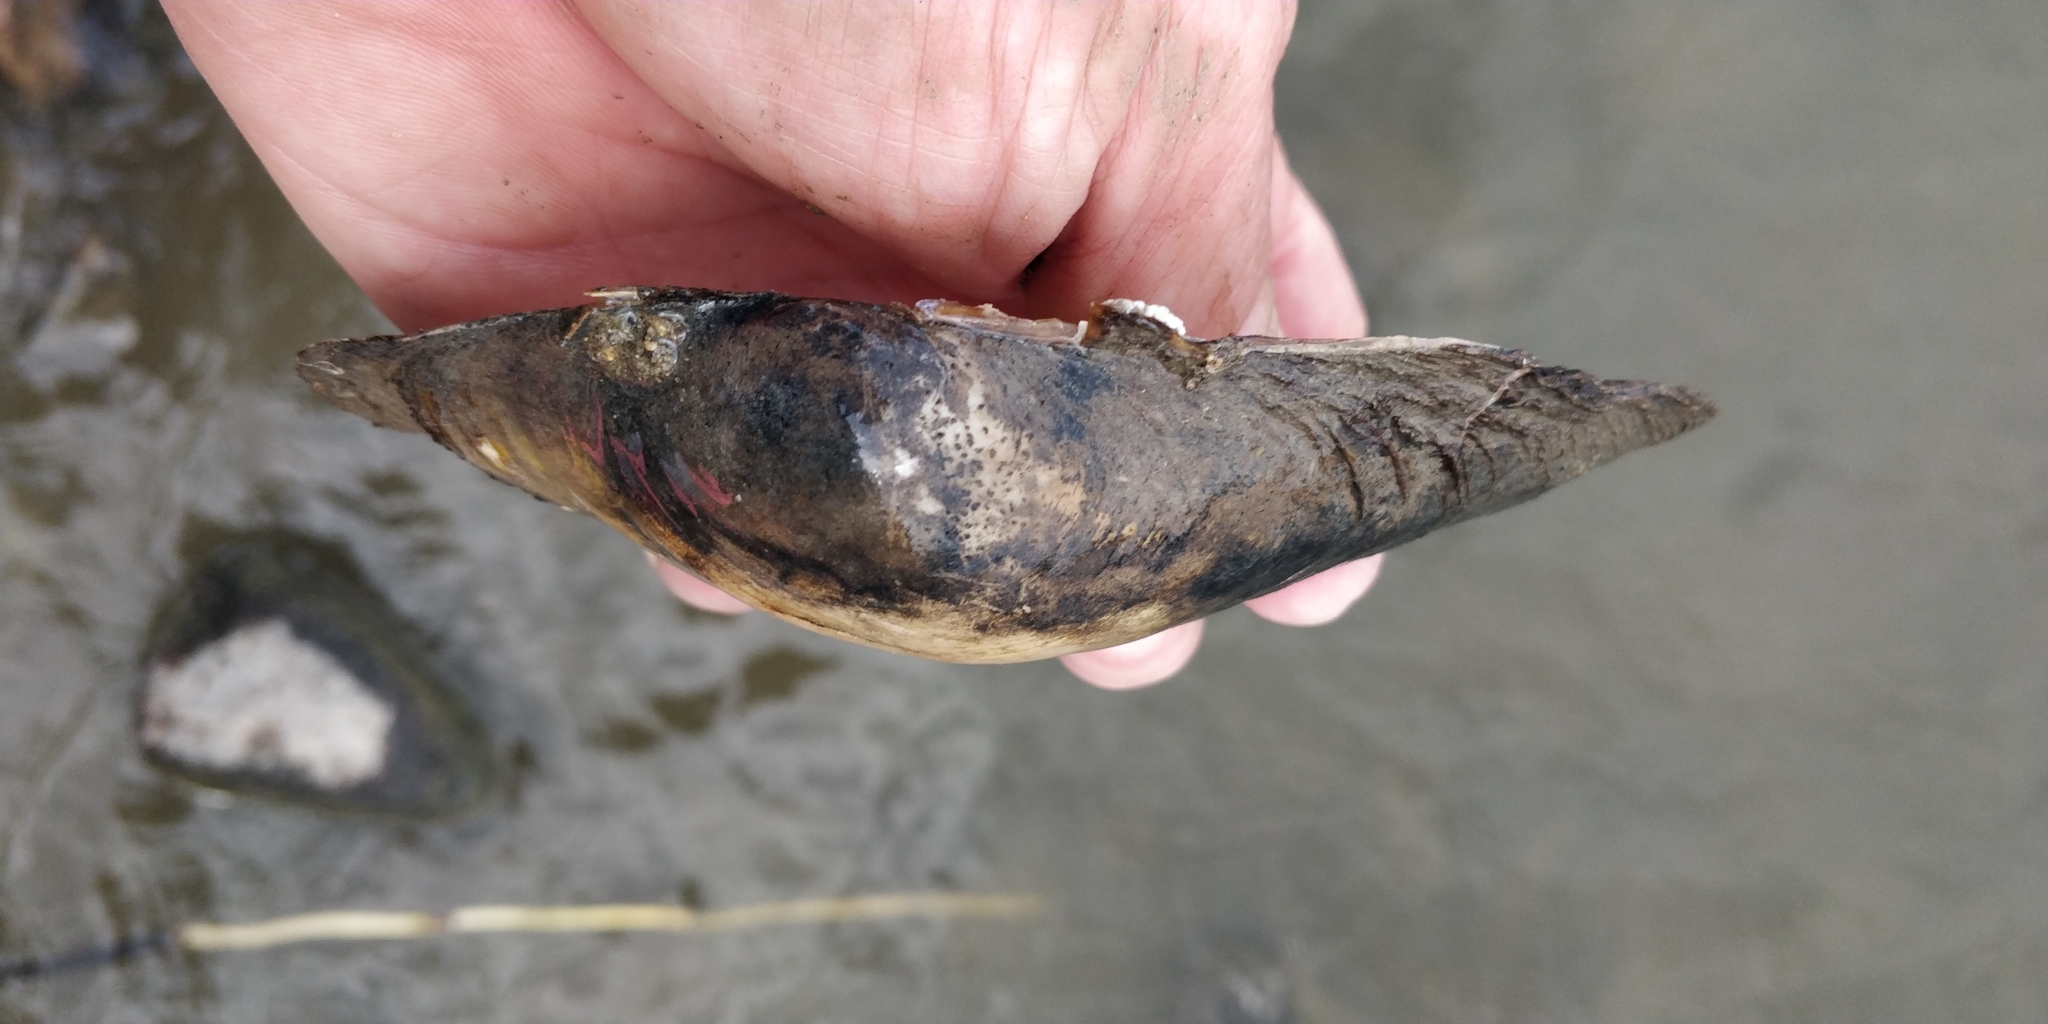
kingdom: Animalia
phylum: Mollusca
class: Bivalvia
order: Unionida
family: Unionidae
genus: Pyganodon
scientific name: Pyganodon grandis
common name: Giant floater
